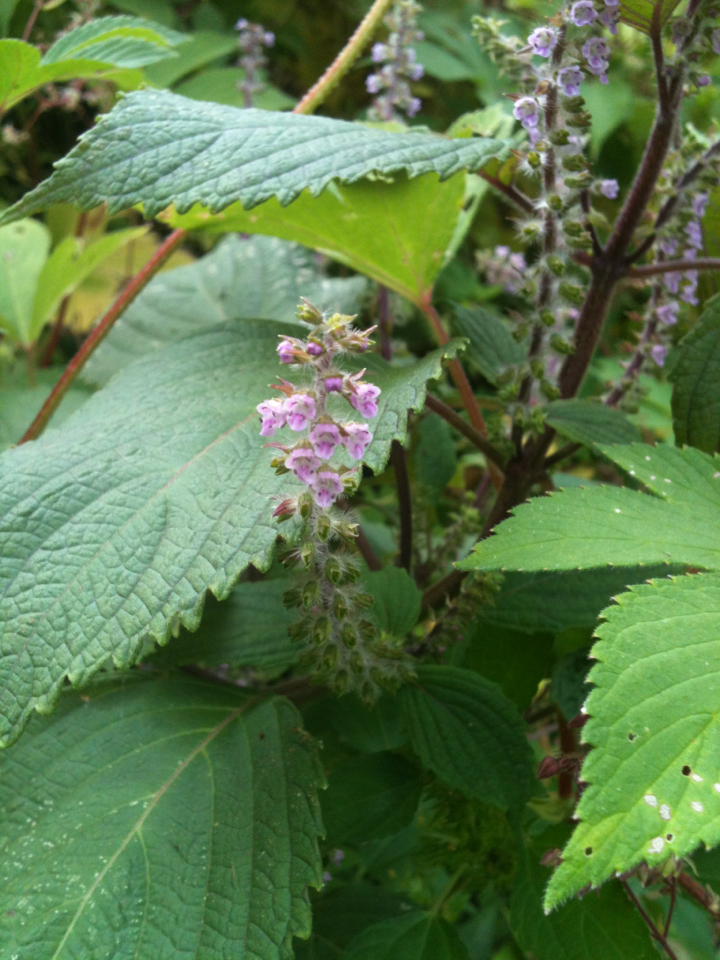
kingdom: Plantae
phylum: Tracheophyta
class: Magnoliopsida
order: Lamiales
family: Lamiaceae
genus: Perilla
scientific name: Perilla frutescens
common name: Perilla
